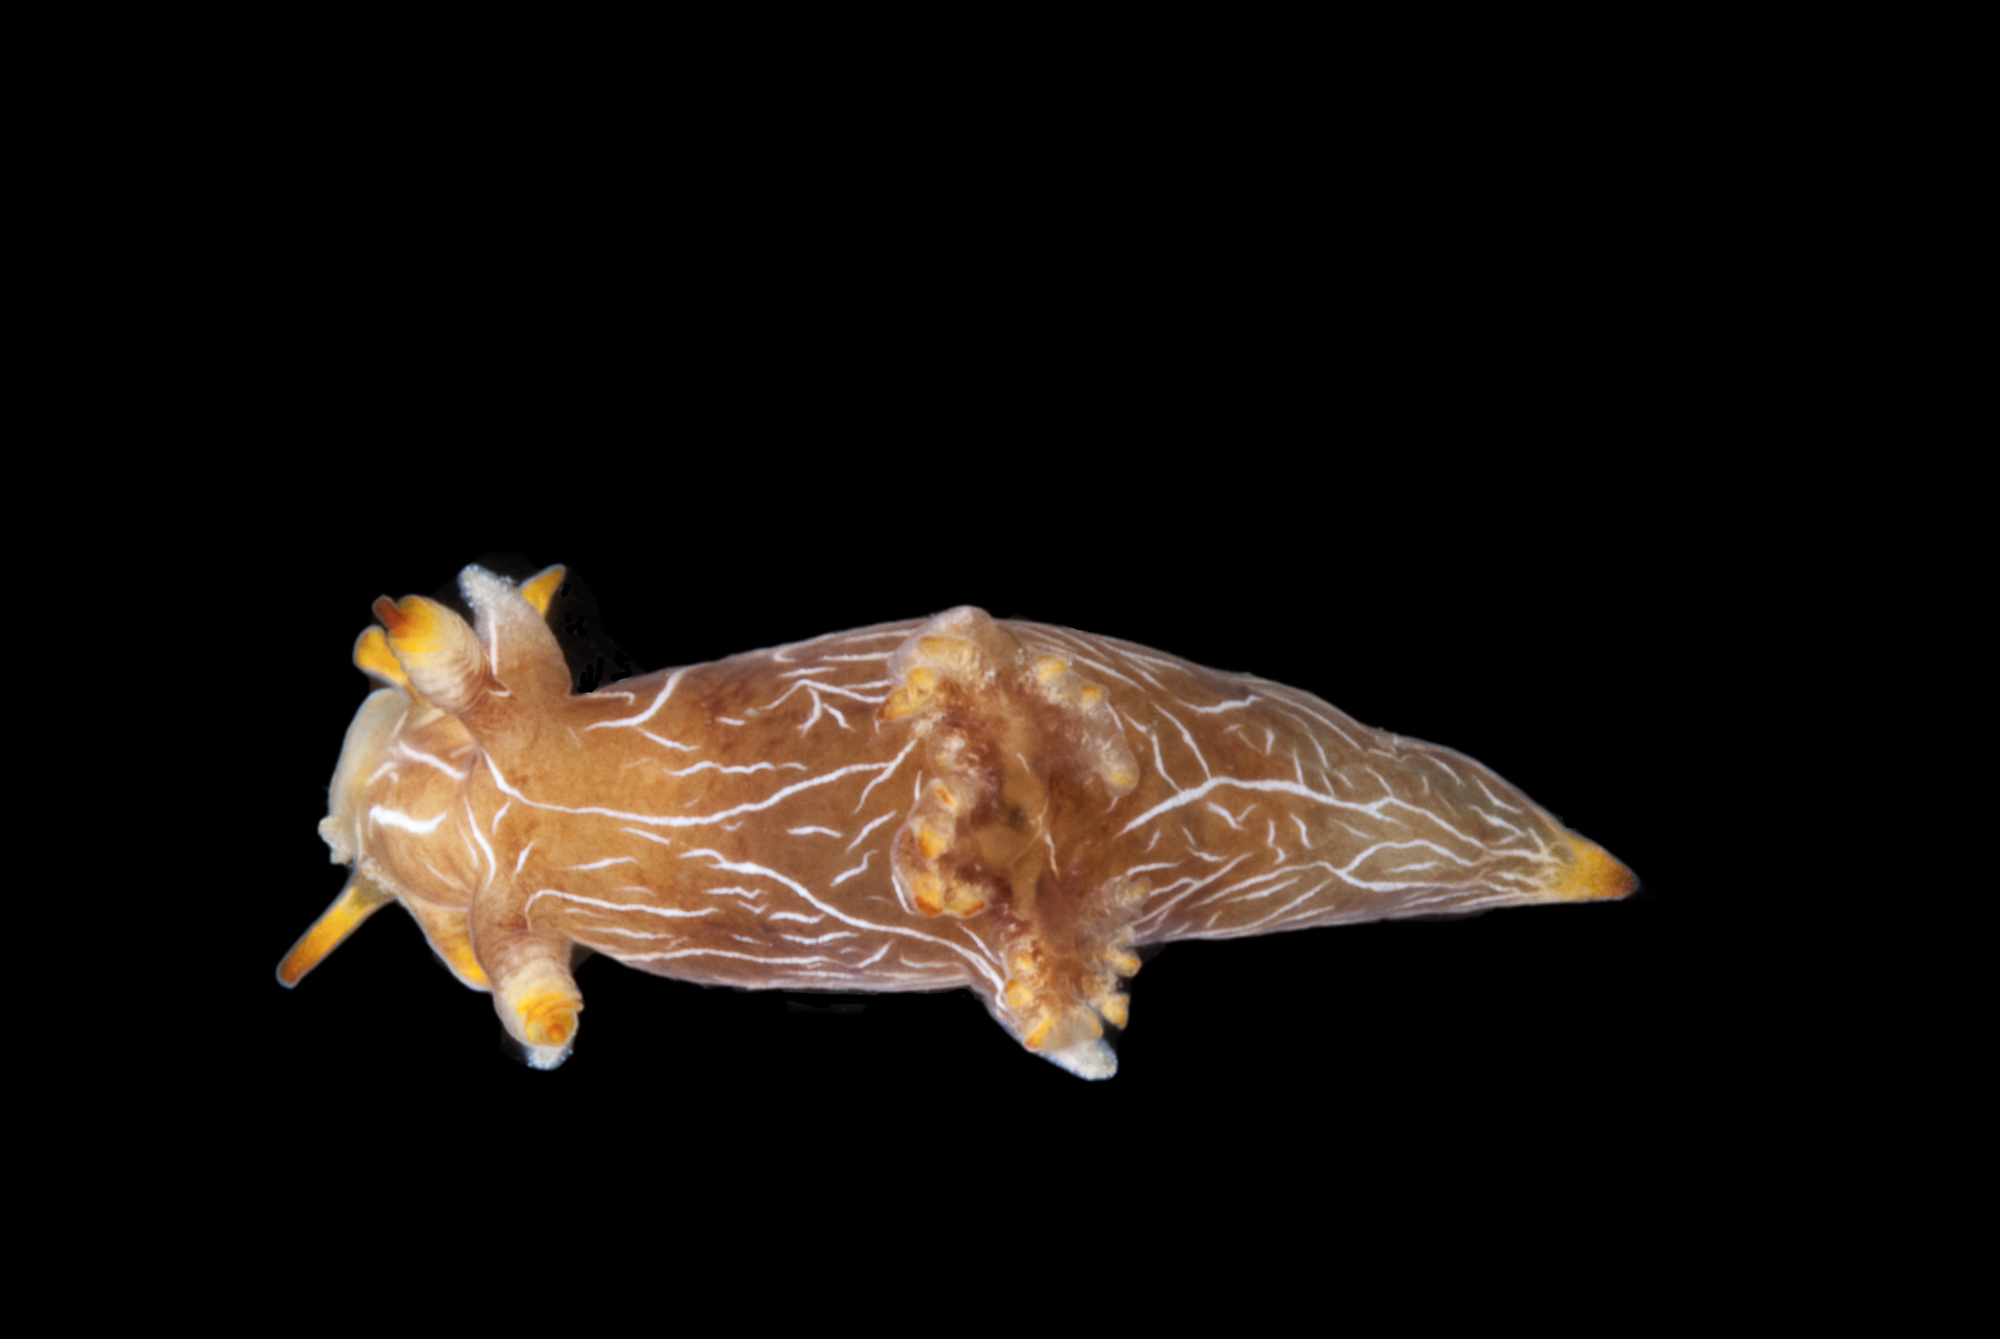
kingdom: Animalia
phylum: Mollusca
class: Gastropoda
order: Nudibranchia
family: Goniodorididae
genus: Trapania
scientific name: Trapania cirrita
